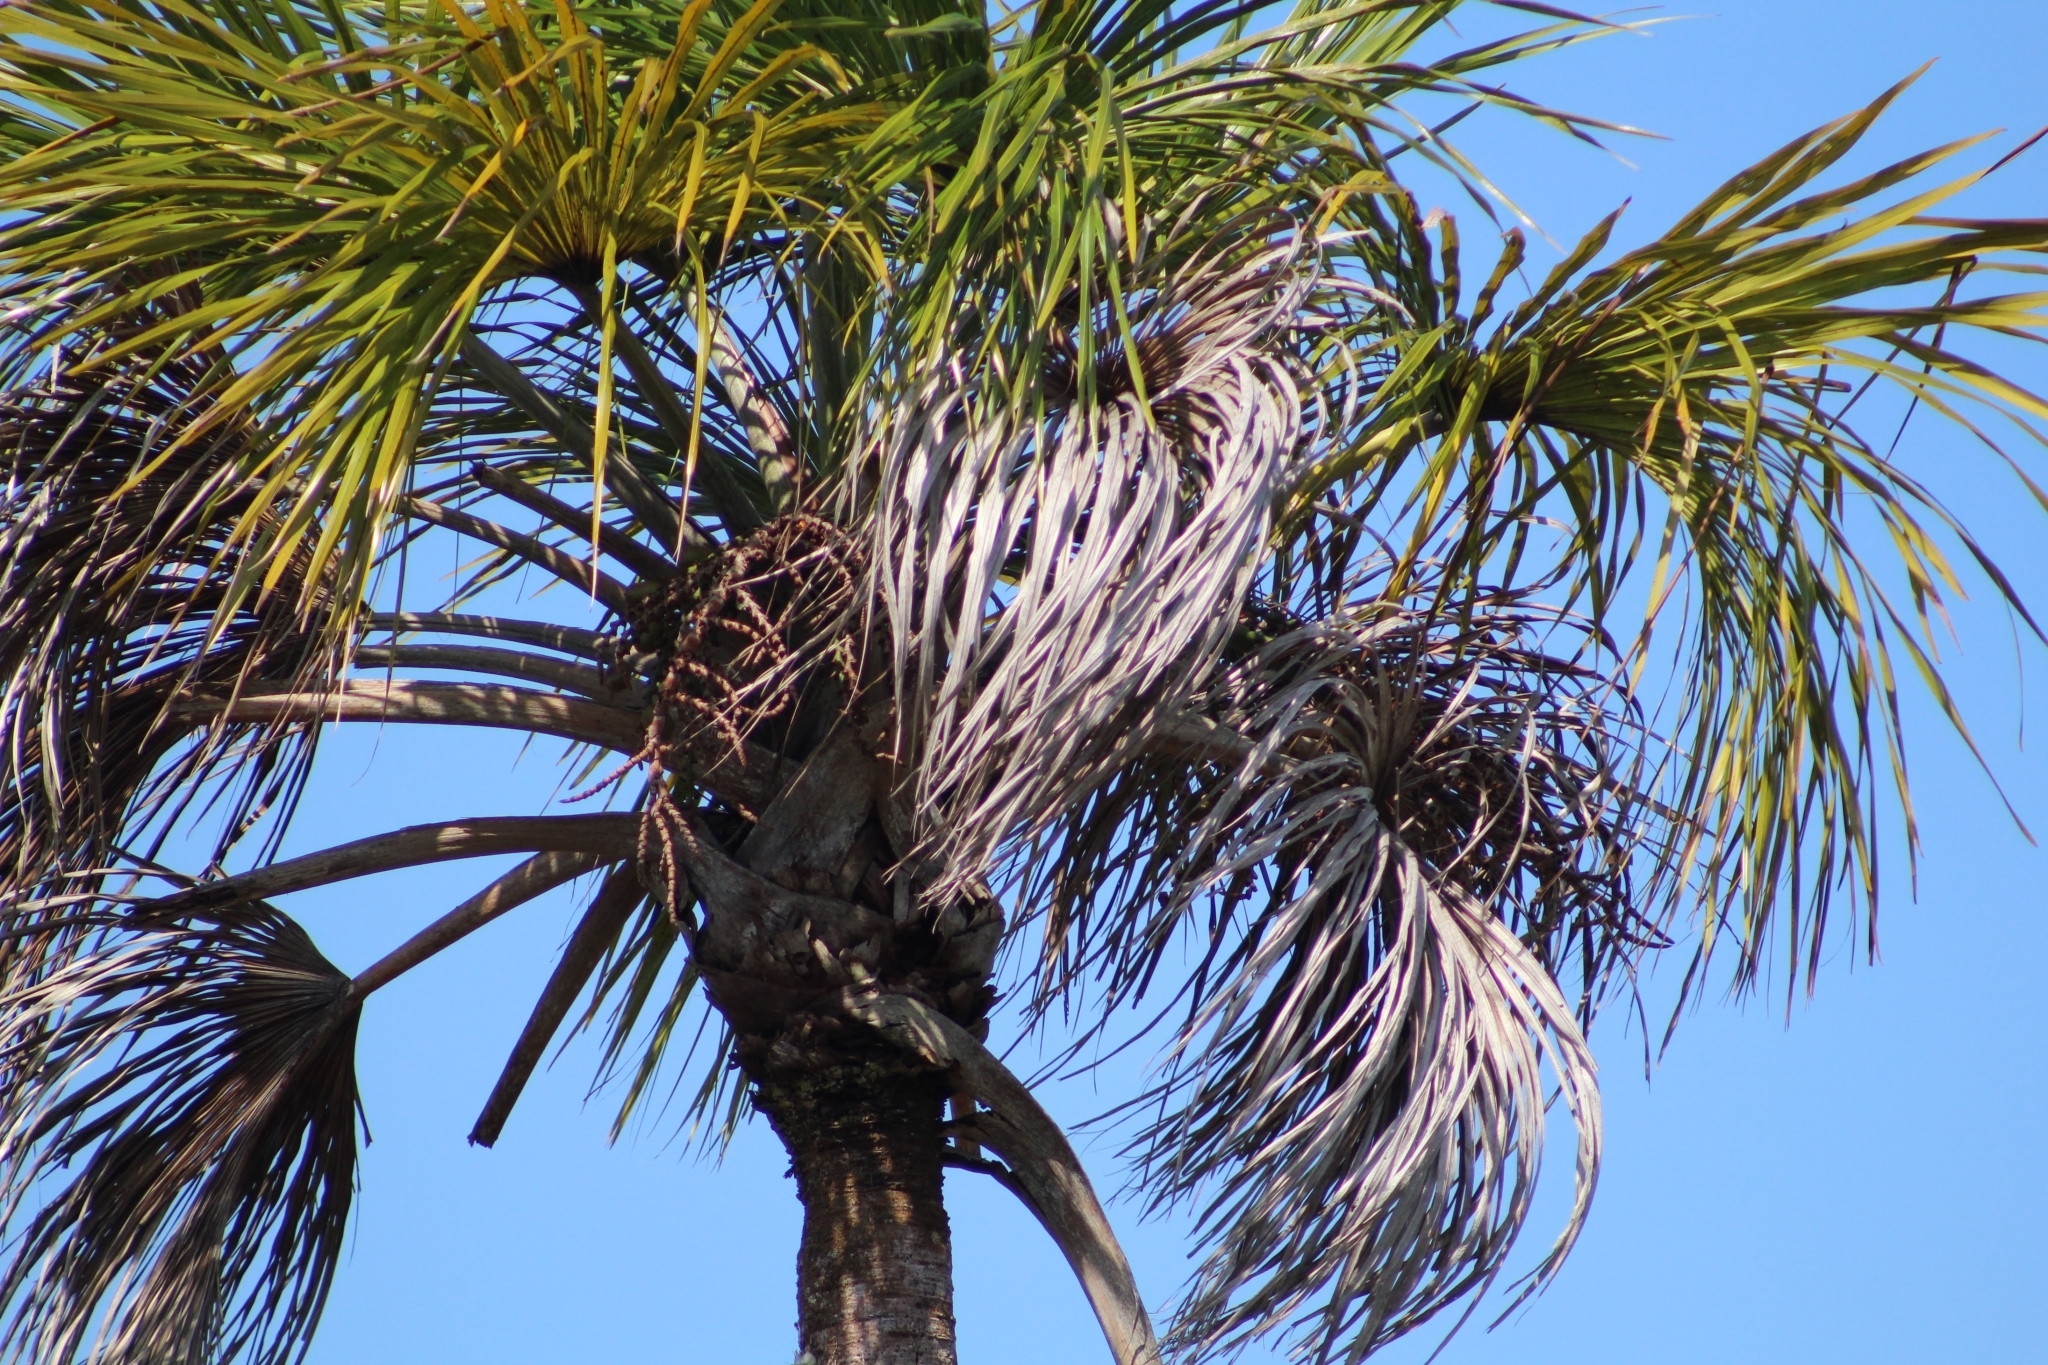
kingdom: Plantae
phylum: Tracheophyta
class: Liliopsida
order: Arecales
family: Arecaceae
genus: Mauritia
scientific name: Mauritia flexuosa
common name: Tree-of-life
